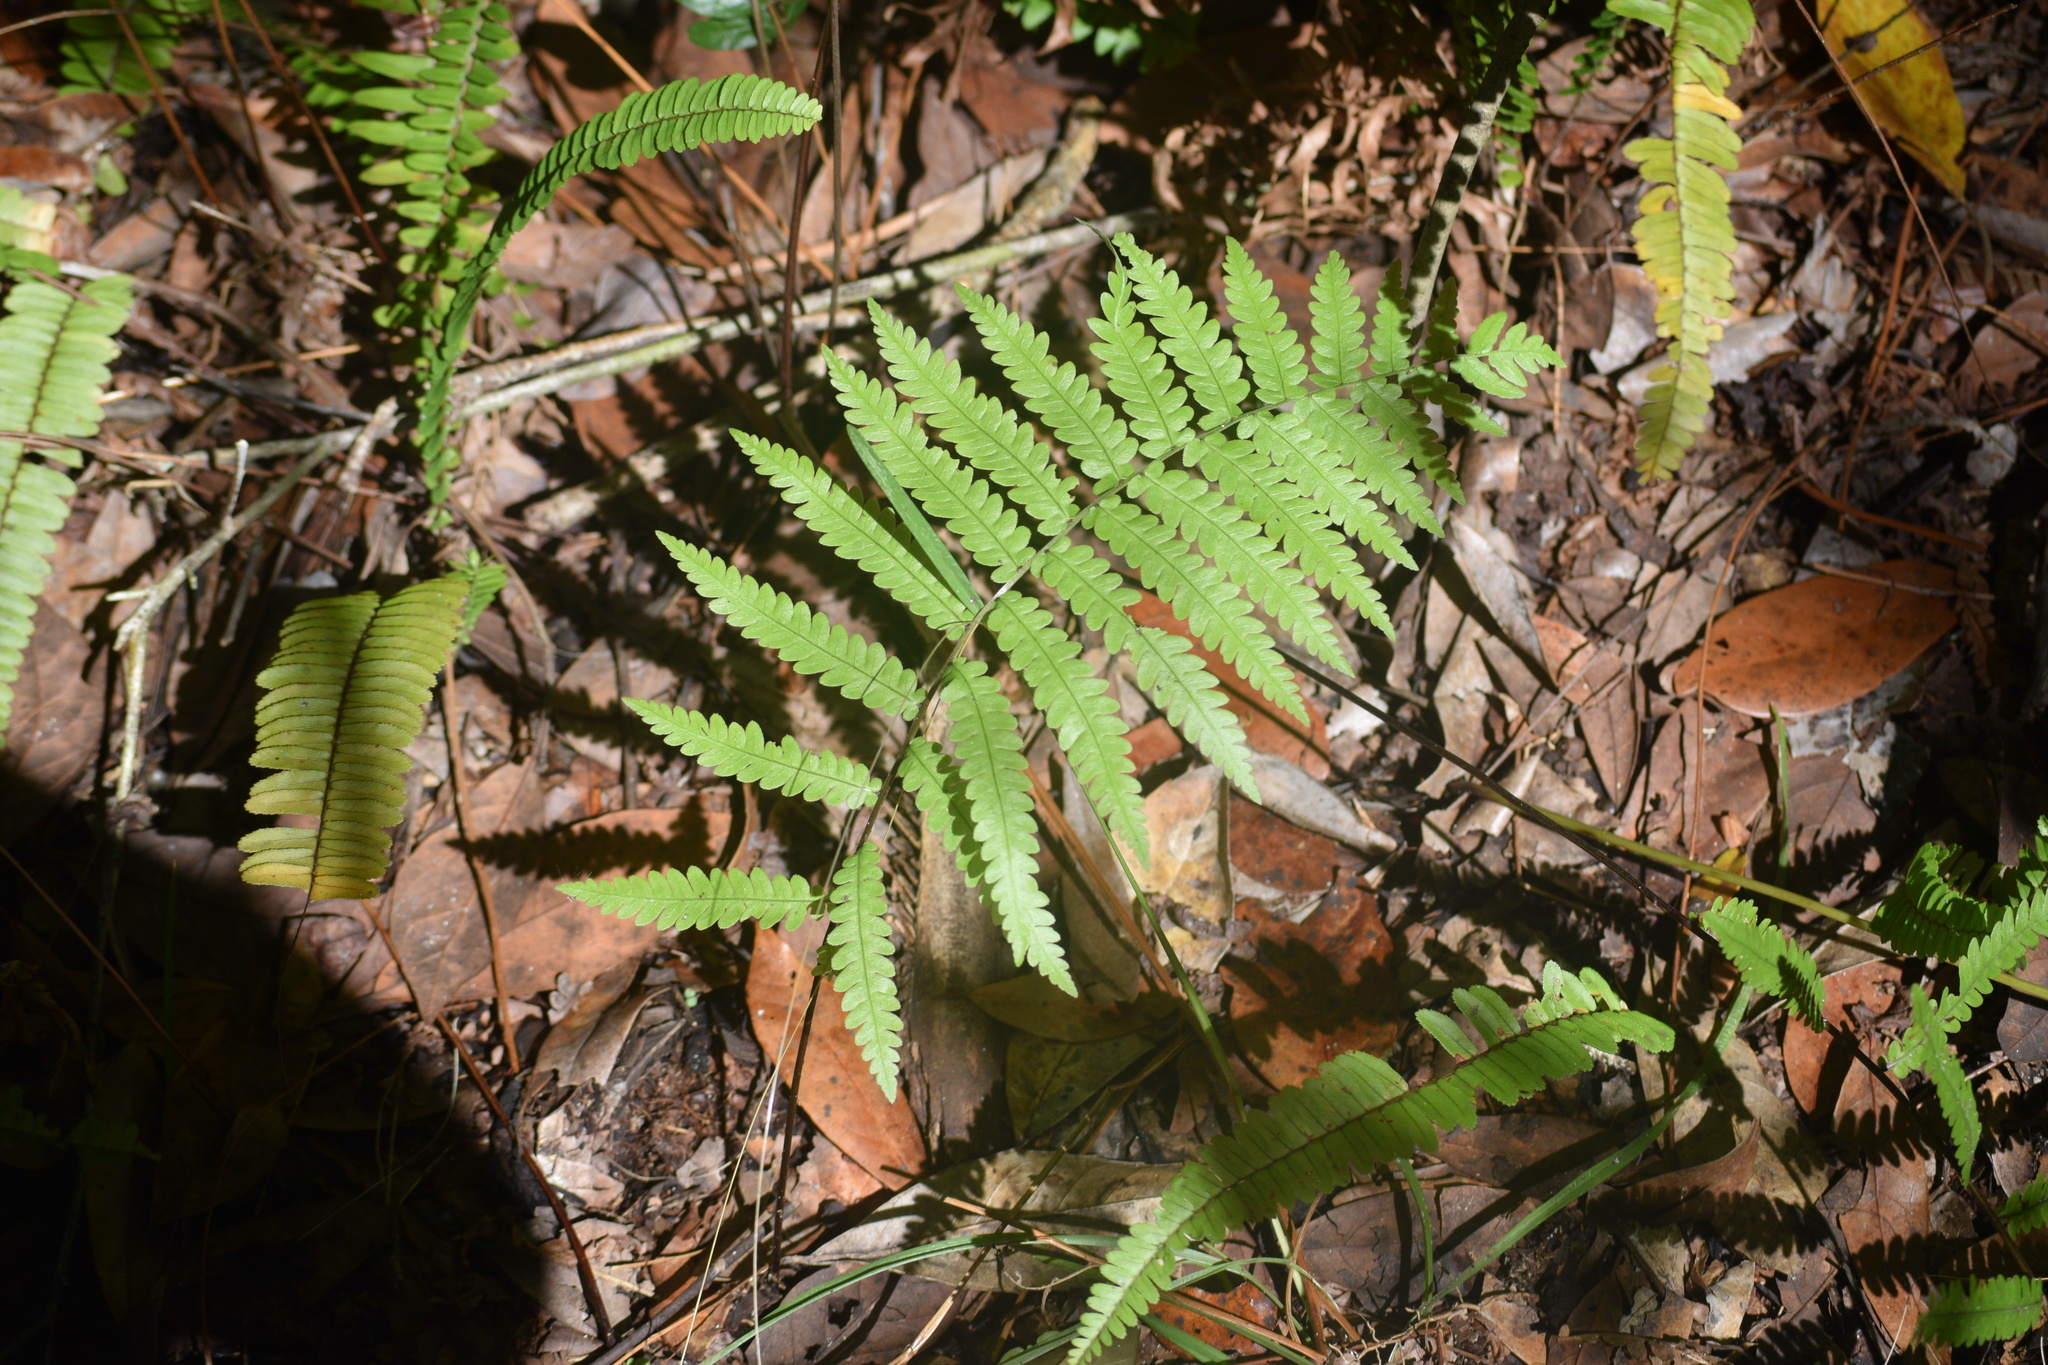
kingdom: Plantae
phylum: Tracheophyta
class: Polypodiopsida
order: Polypodiales
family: Blechnaceae
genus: Anchistea
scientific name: Anchistea virginica
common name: Virginia chain fern
